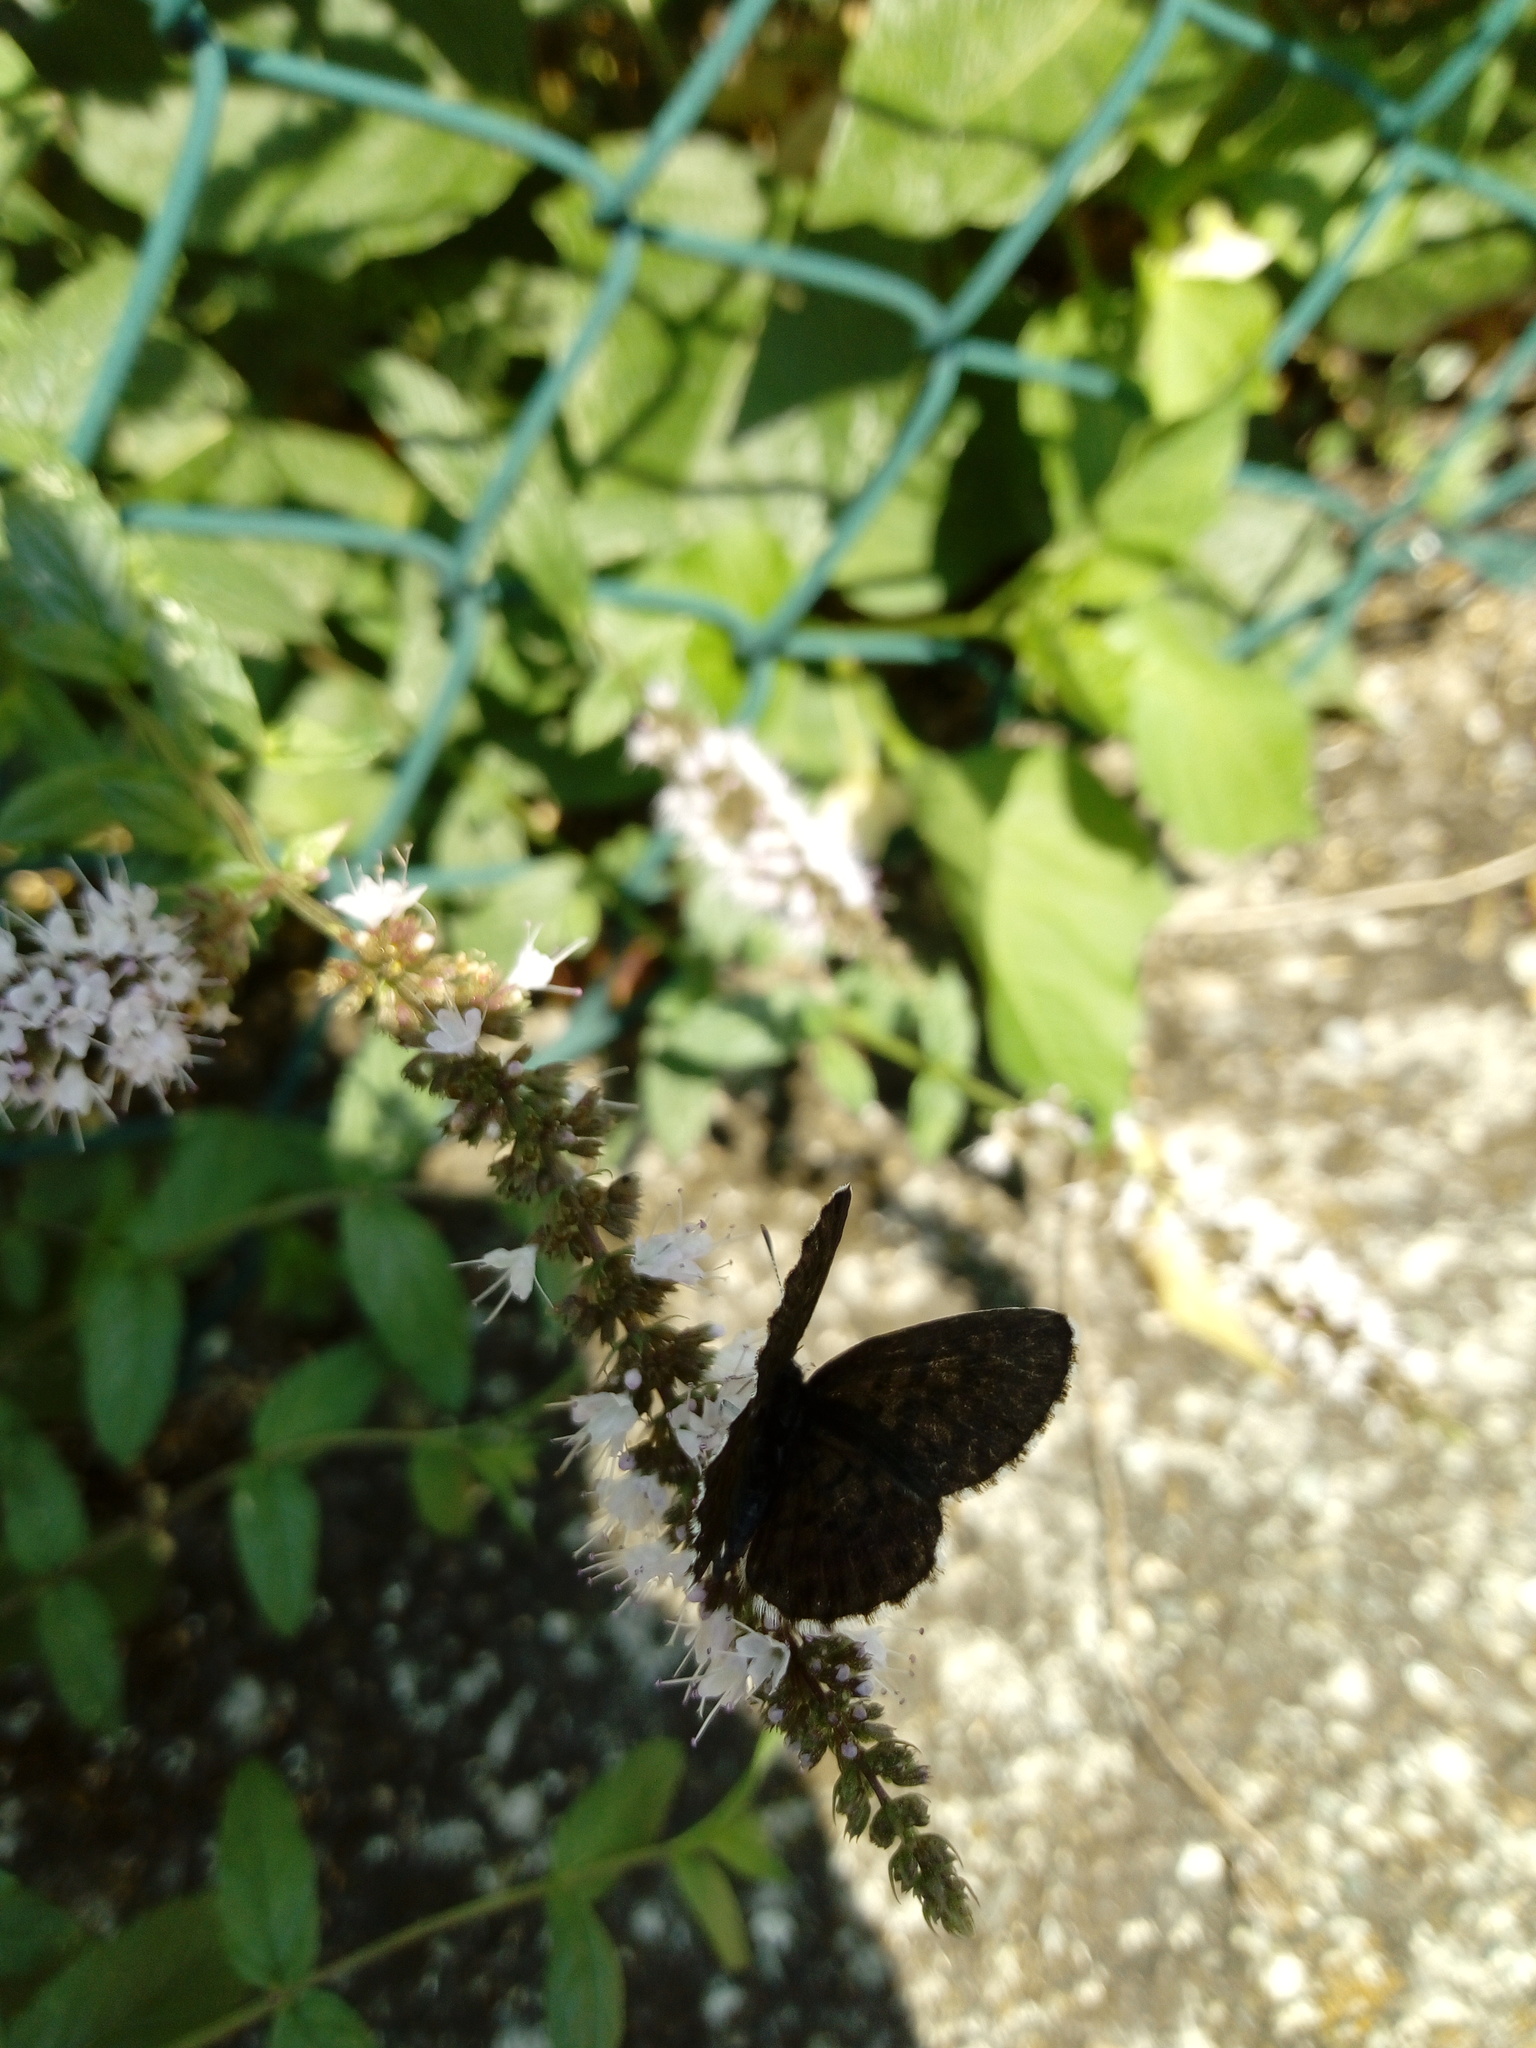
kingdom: Animalia
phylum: Arthropoda
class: Insecta
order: Lepidoptera
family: Lycaenidae
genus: Scolitantides
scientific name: Scolitantides orion
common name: Chequered blue
